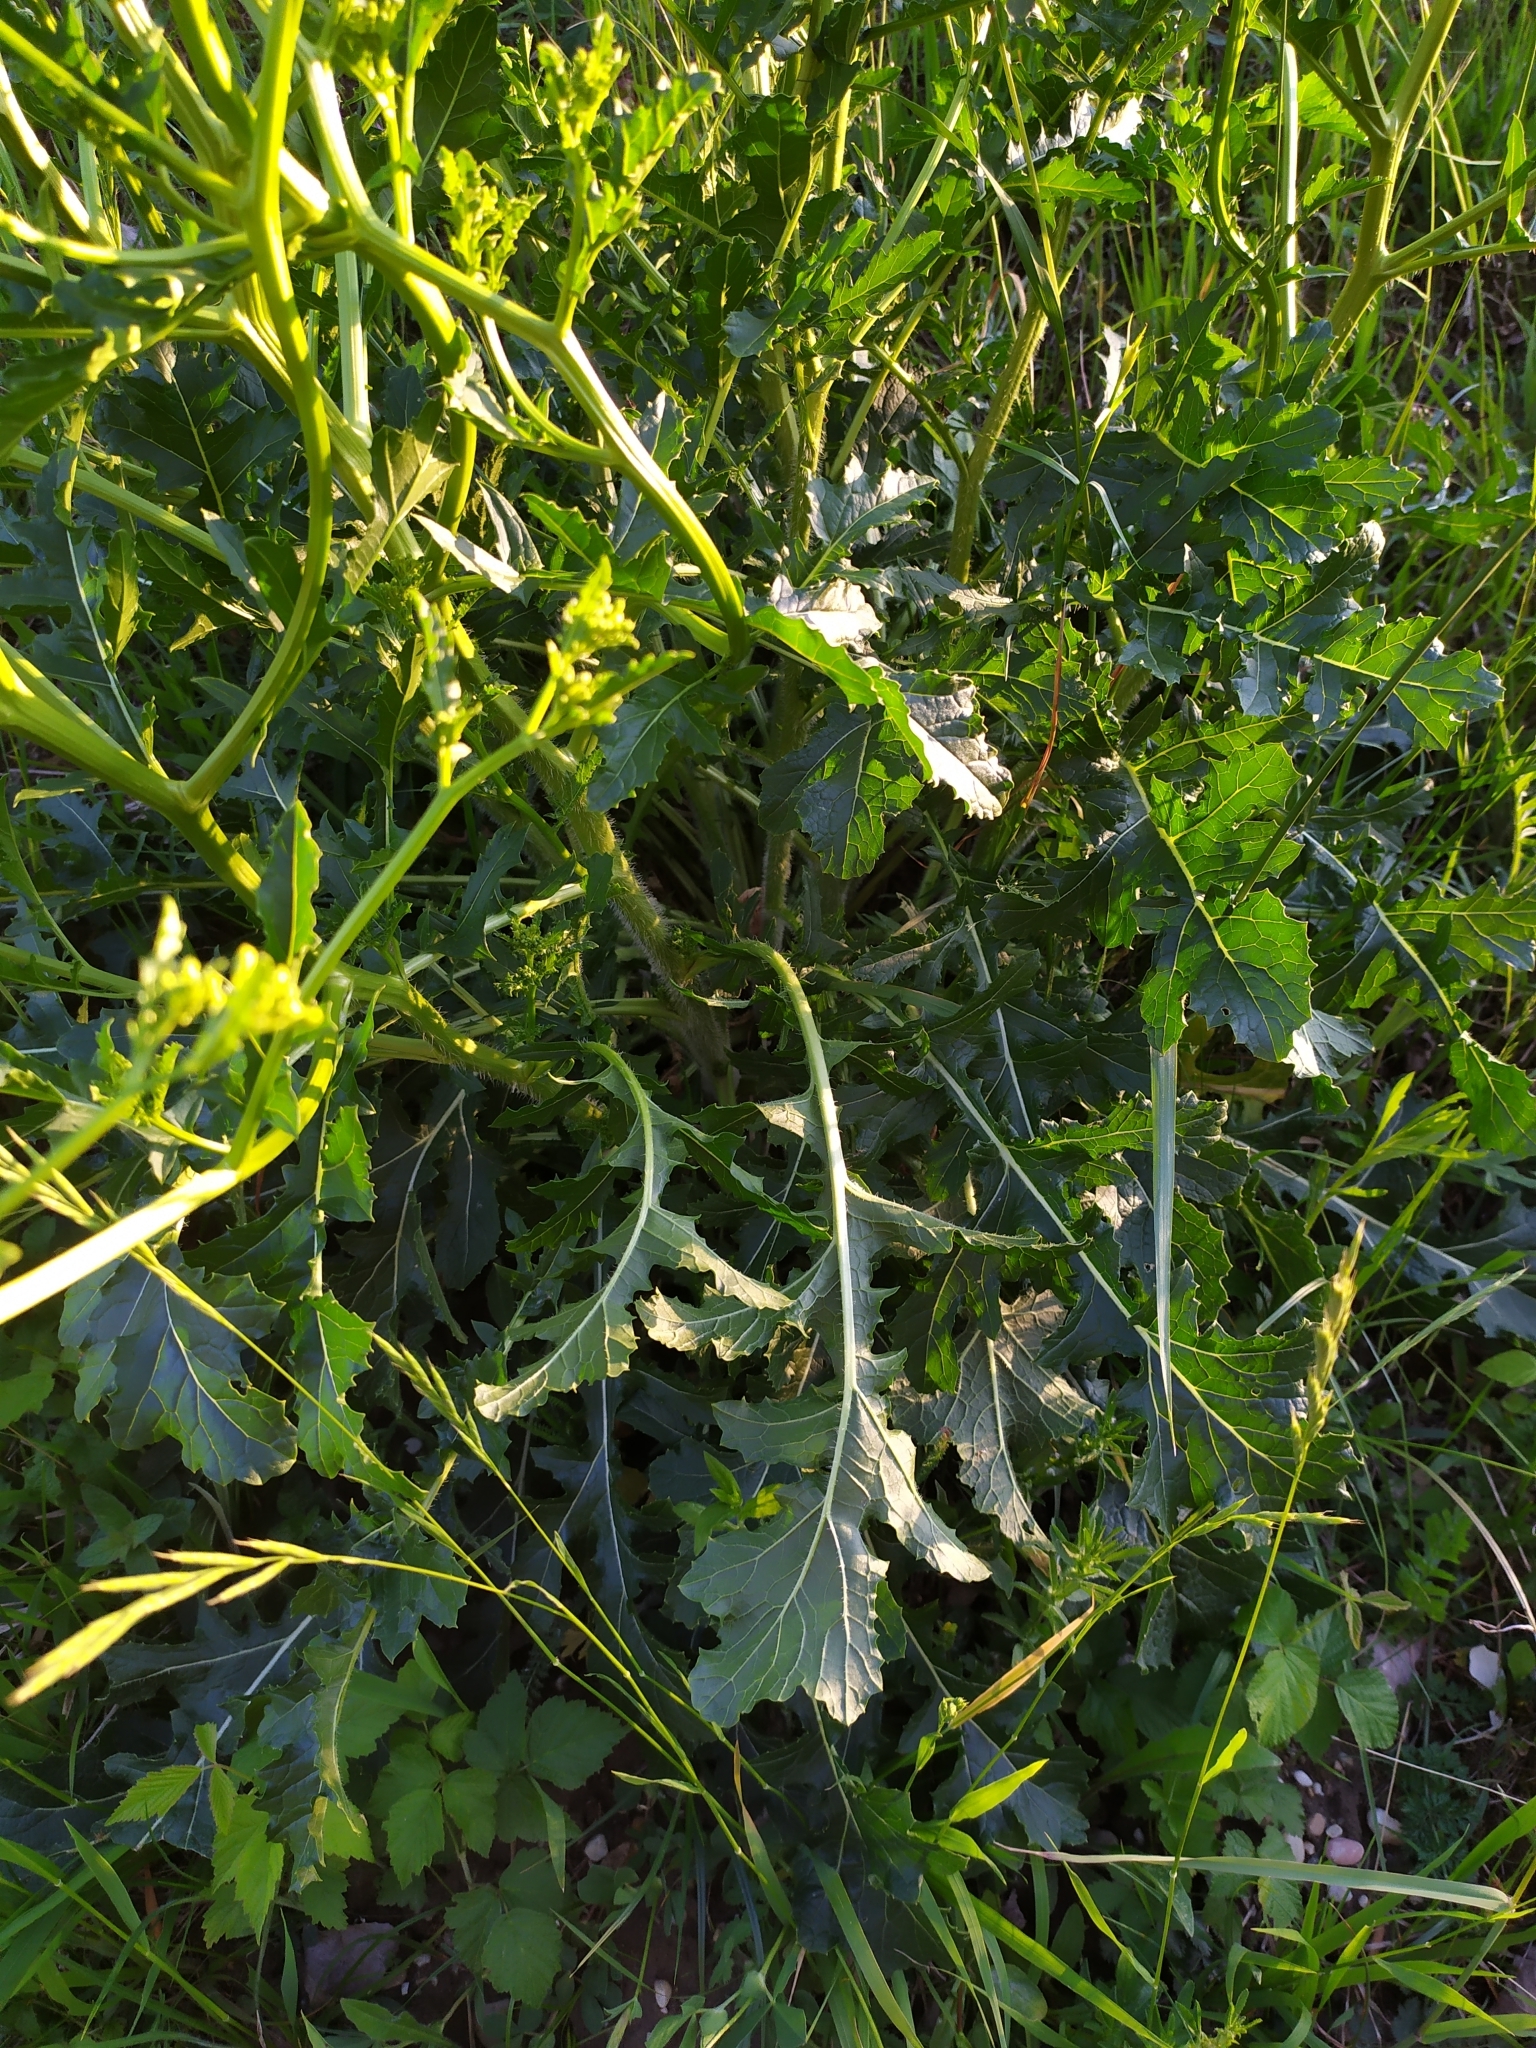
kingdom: Plantae
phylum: Tracheophyta
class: Magnoliopsida
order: Brassicales
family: Brassicaceae
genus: Rapistrum
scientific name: Rapistrum perenne
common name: Steppe cabbage
